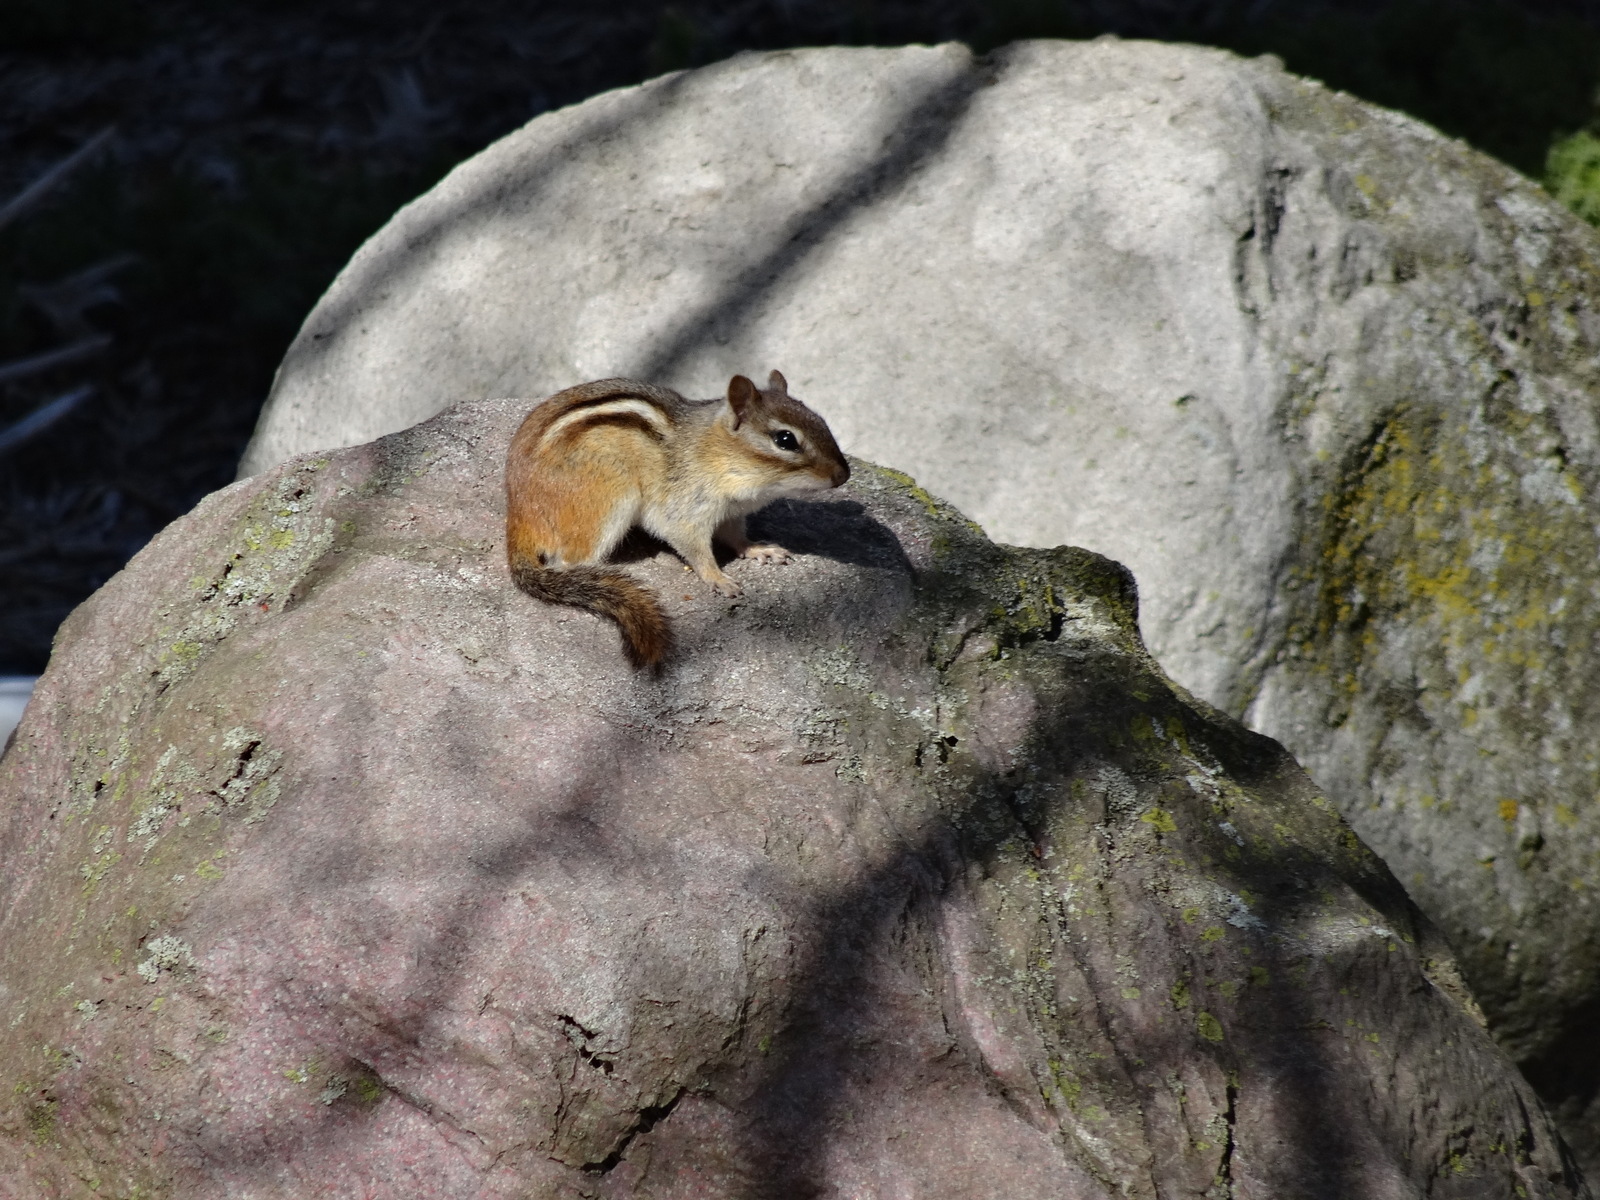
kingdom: Animalia
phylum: Chordata
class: Mammalia
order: Rodentia
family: Sciuridae
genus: Tamias
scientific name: Tamias striatus
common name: Eastern chipmunk
